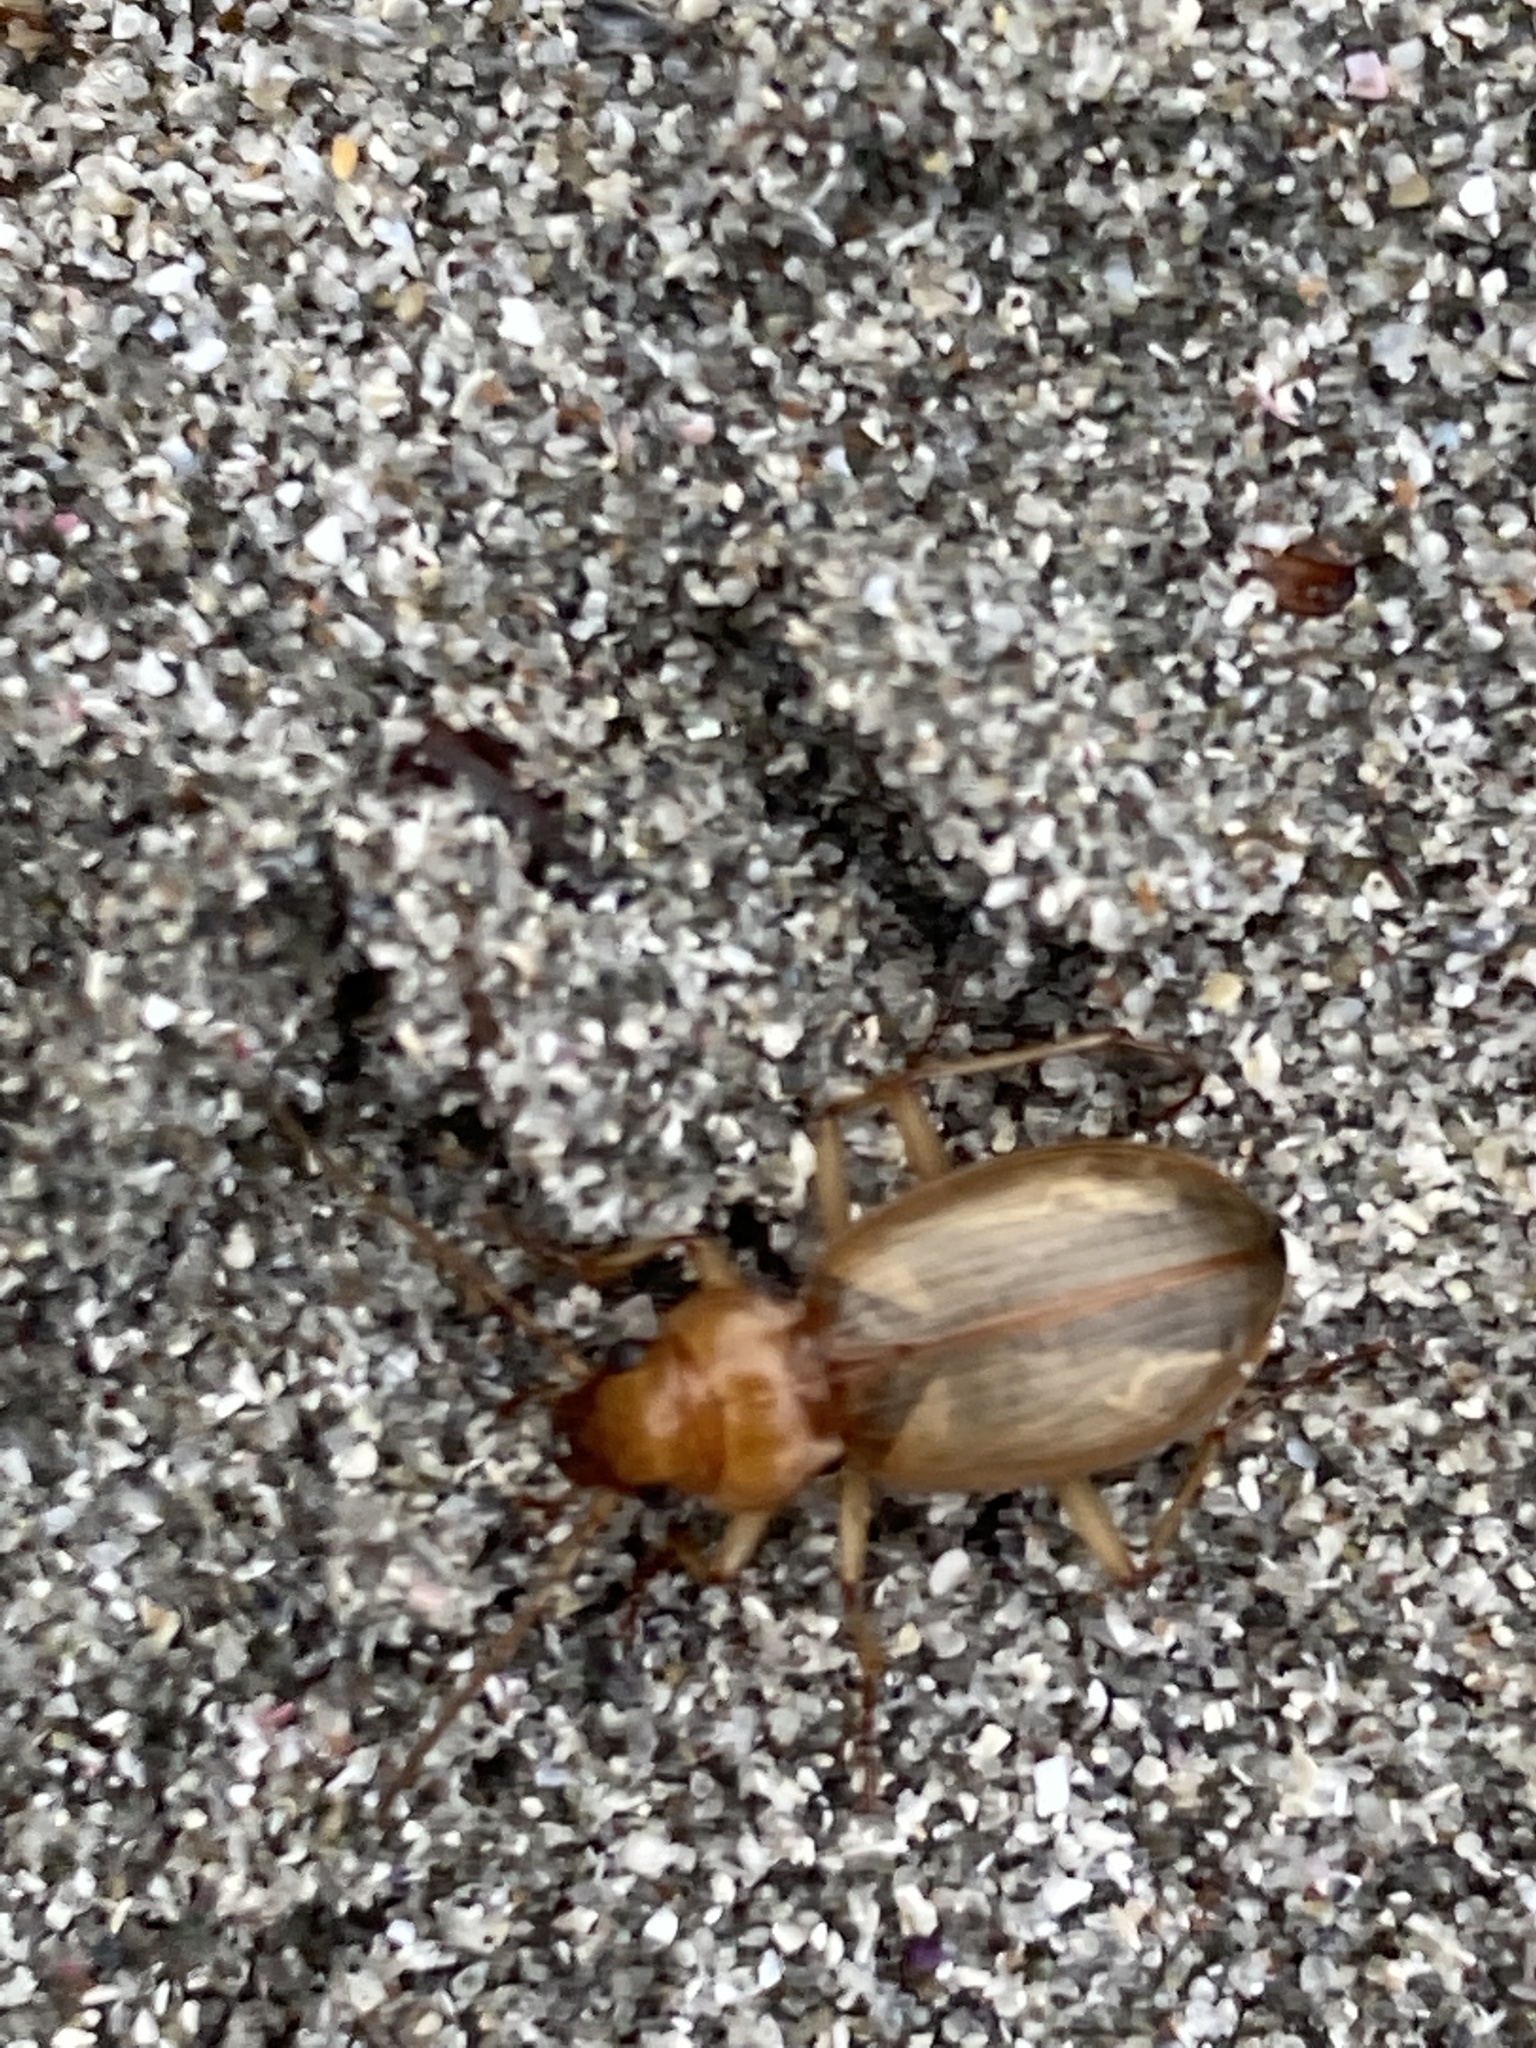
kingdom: Animalia
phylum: Arthropoda
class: Insecta
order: Coleoptera
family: Carabidae
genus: Nebria
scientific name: Nebria diversa
